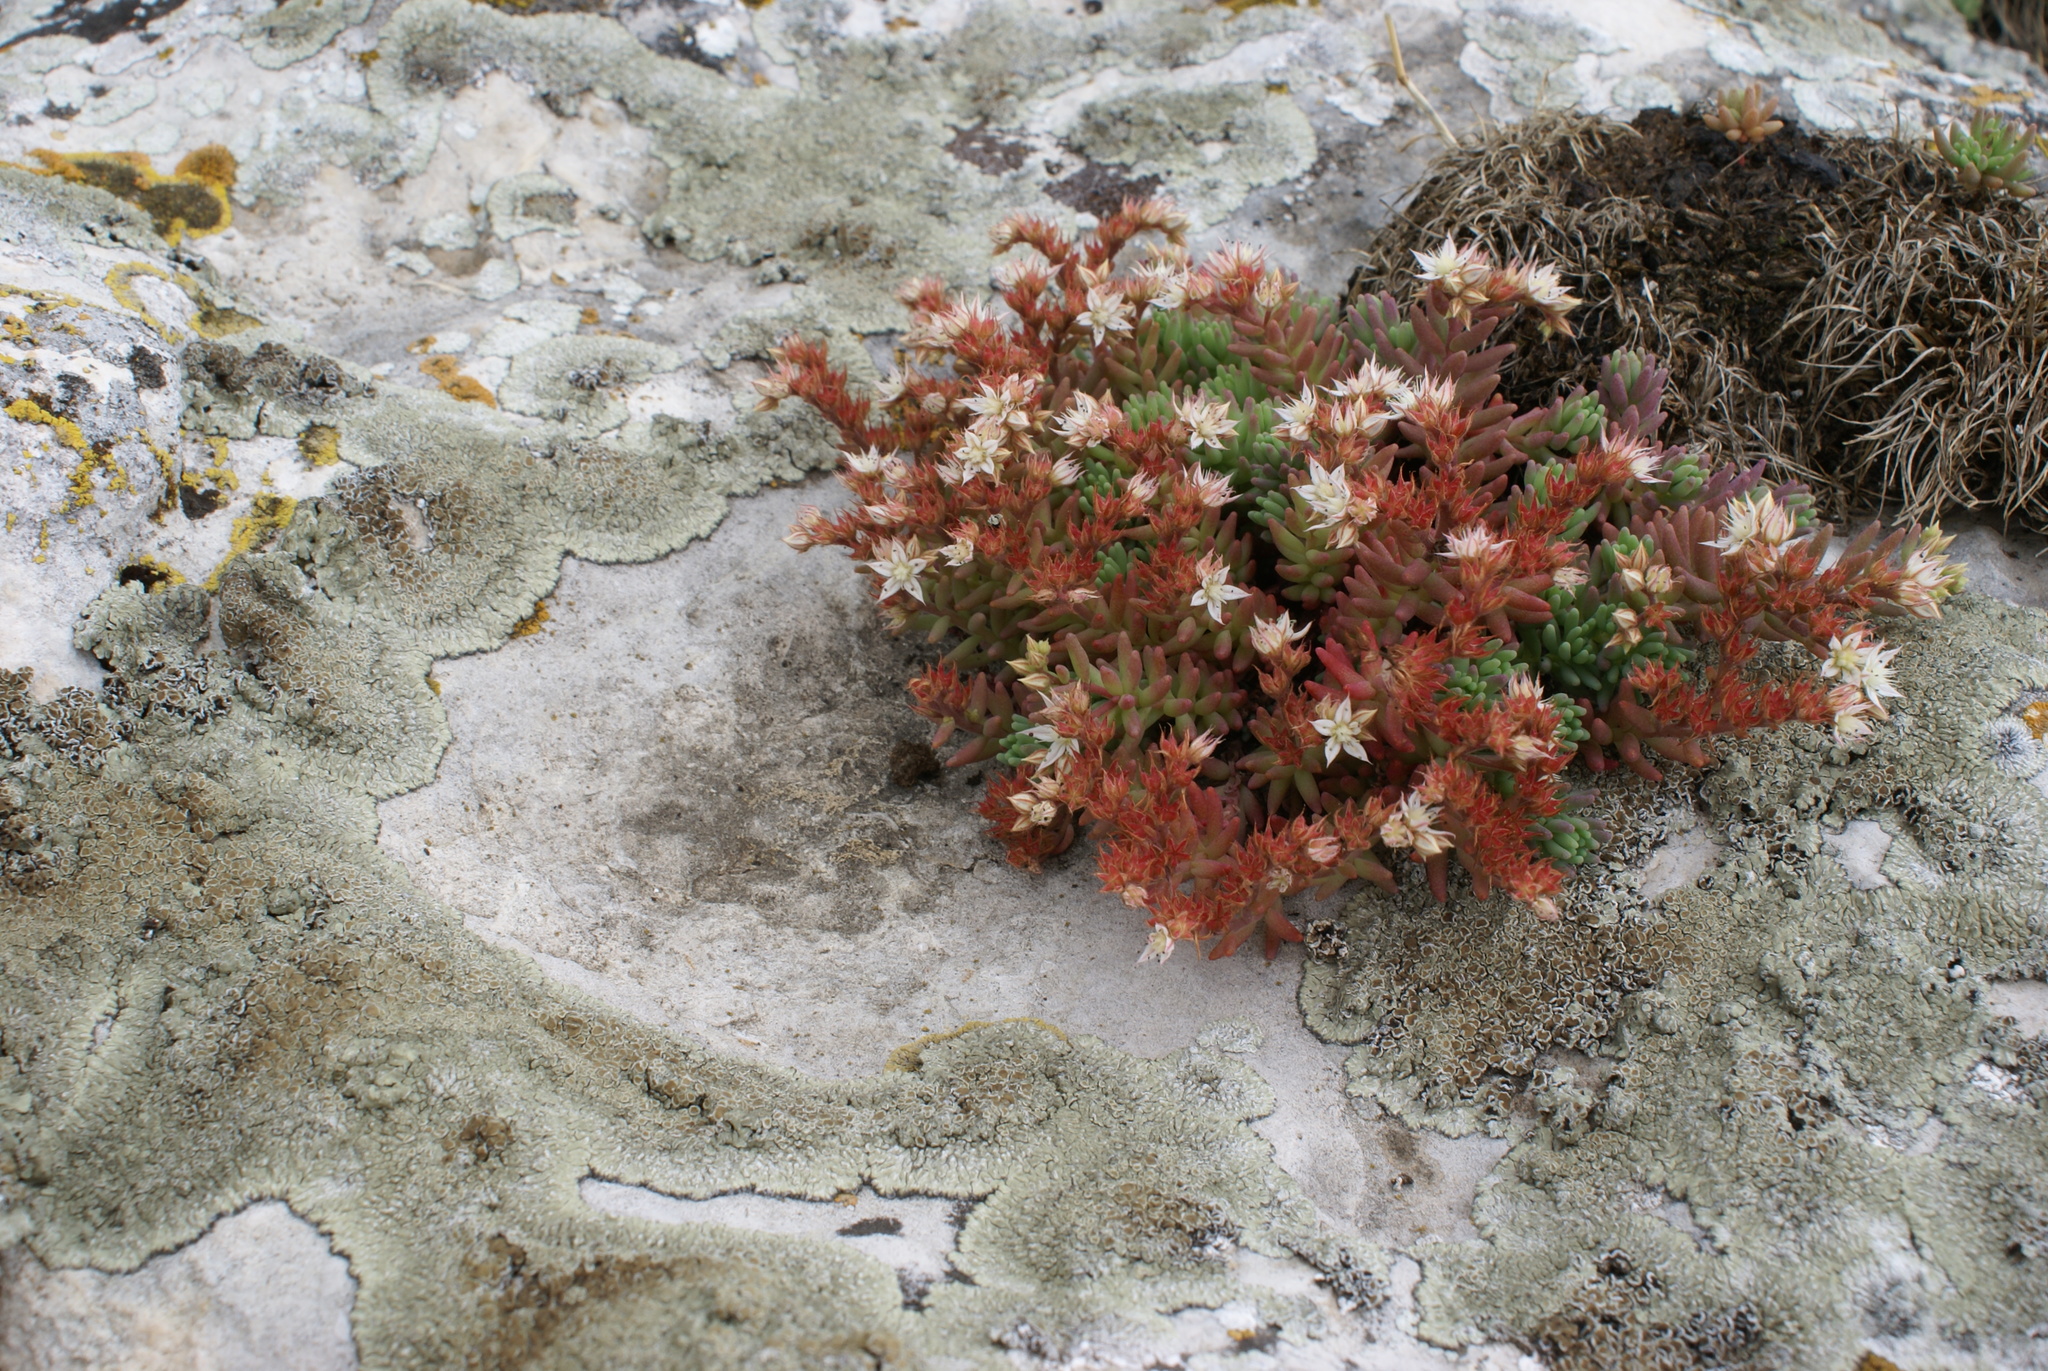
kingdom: Plantae
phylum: Tracheophyta
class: Magnoliopsida
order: Saxifragales
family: Crassulaceae
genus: Sedum
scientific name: Sedum pallidum
